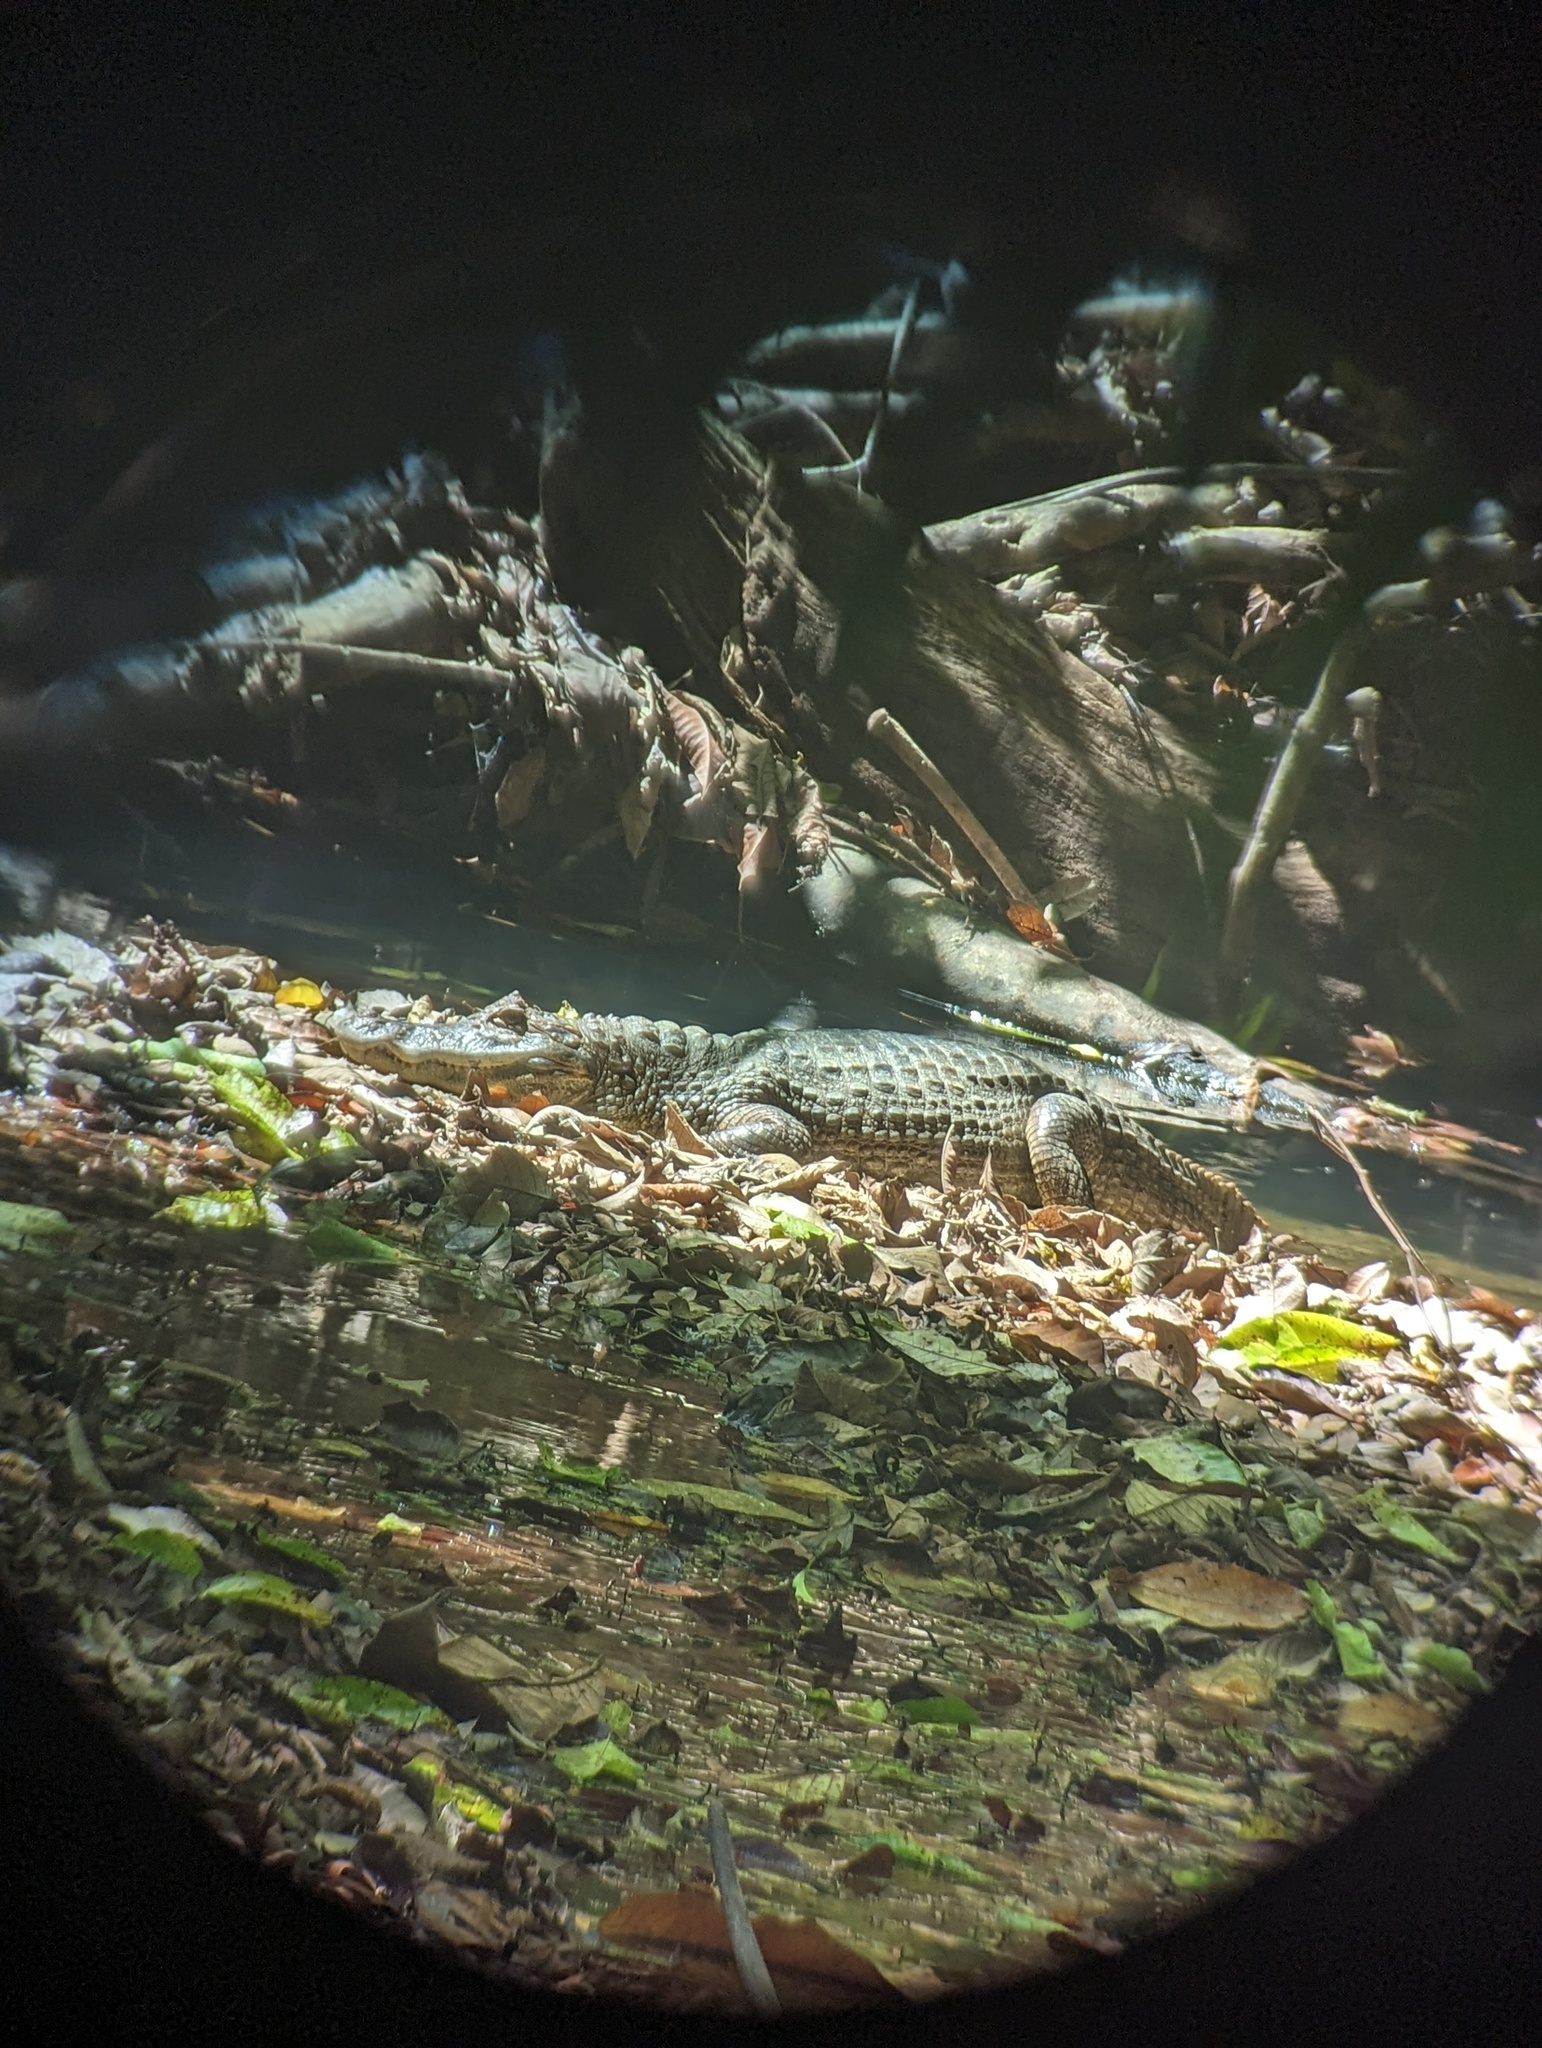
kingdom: Animalia
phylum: Chordata
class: Crocodylia
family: Alligatoridae
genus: Caiman
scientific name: Caiman crocodilus
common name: Common caiman
